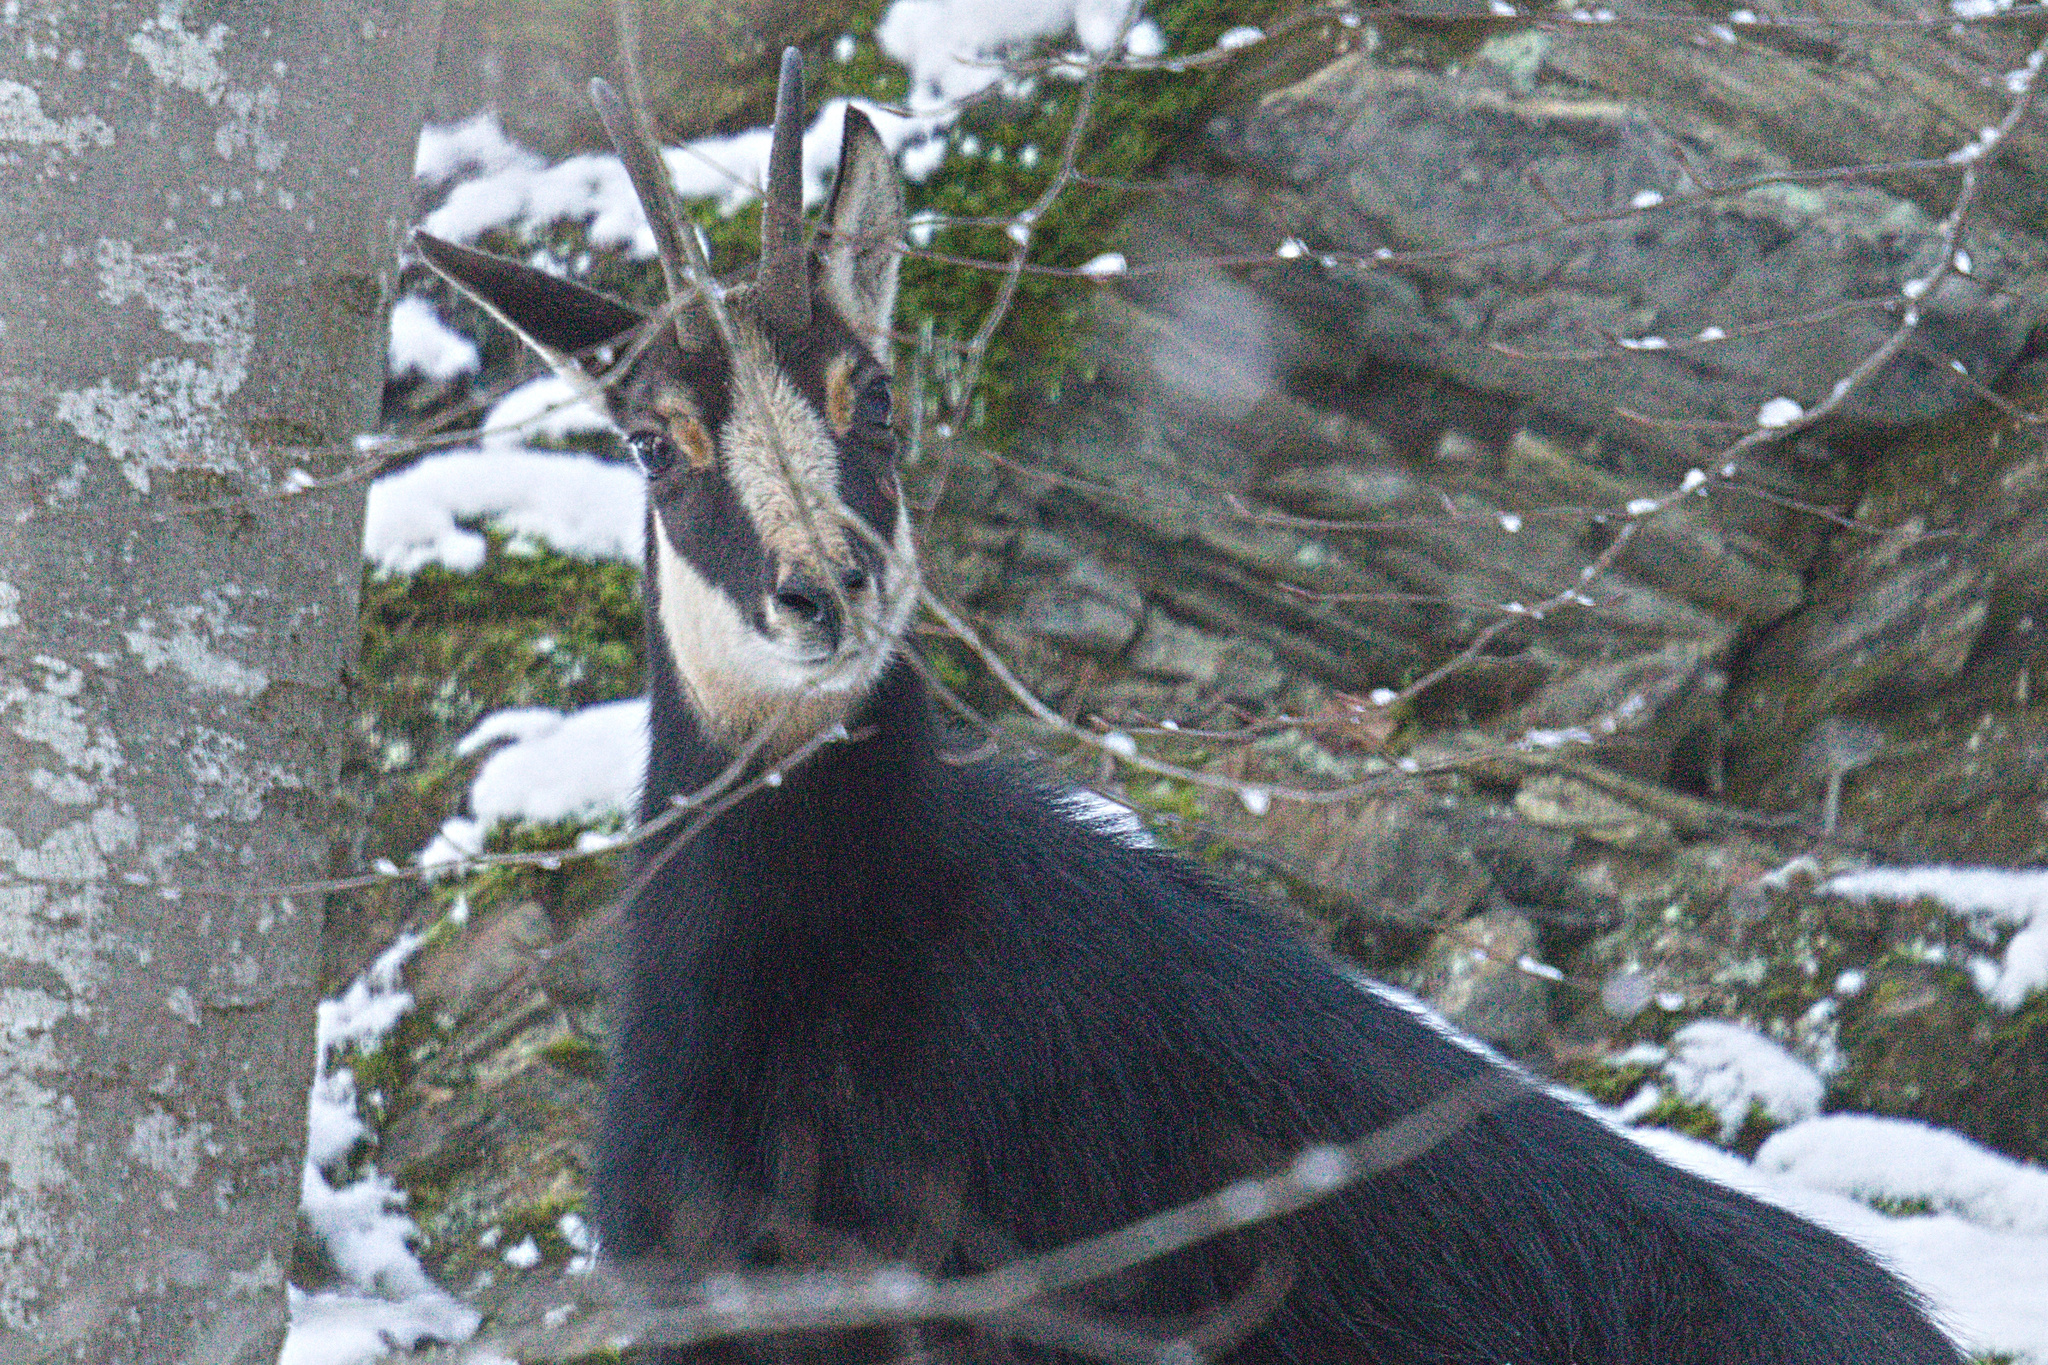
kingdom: Animalia
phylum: Chordata
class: Mammalia
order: Artiodactyla
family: Bovidae
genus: Rupicapra
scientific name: Rupicapra rupicapra
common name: Chamois
